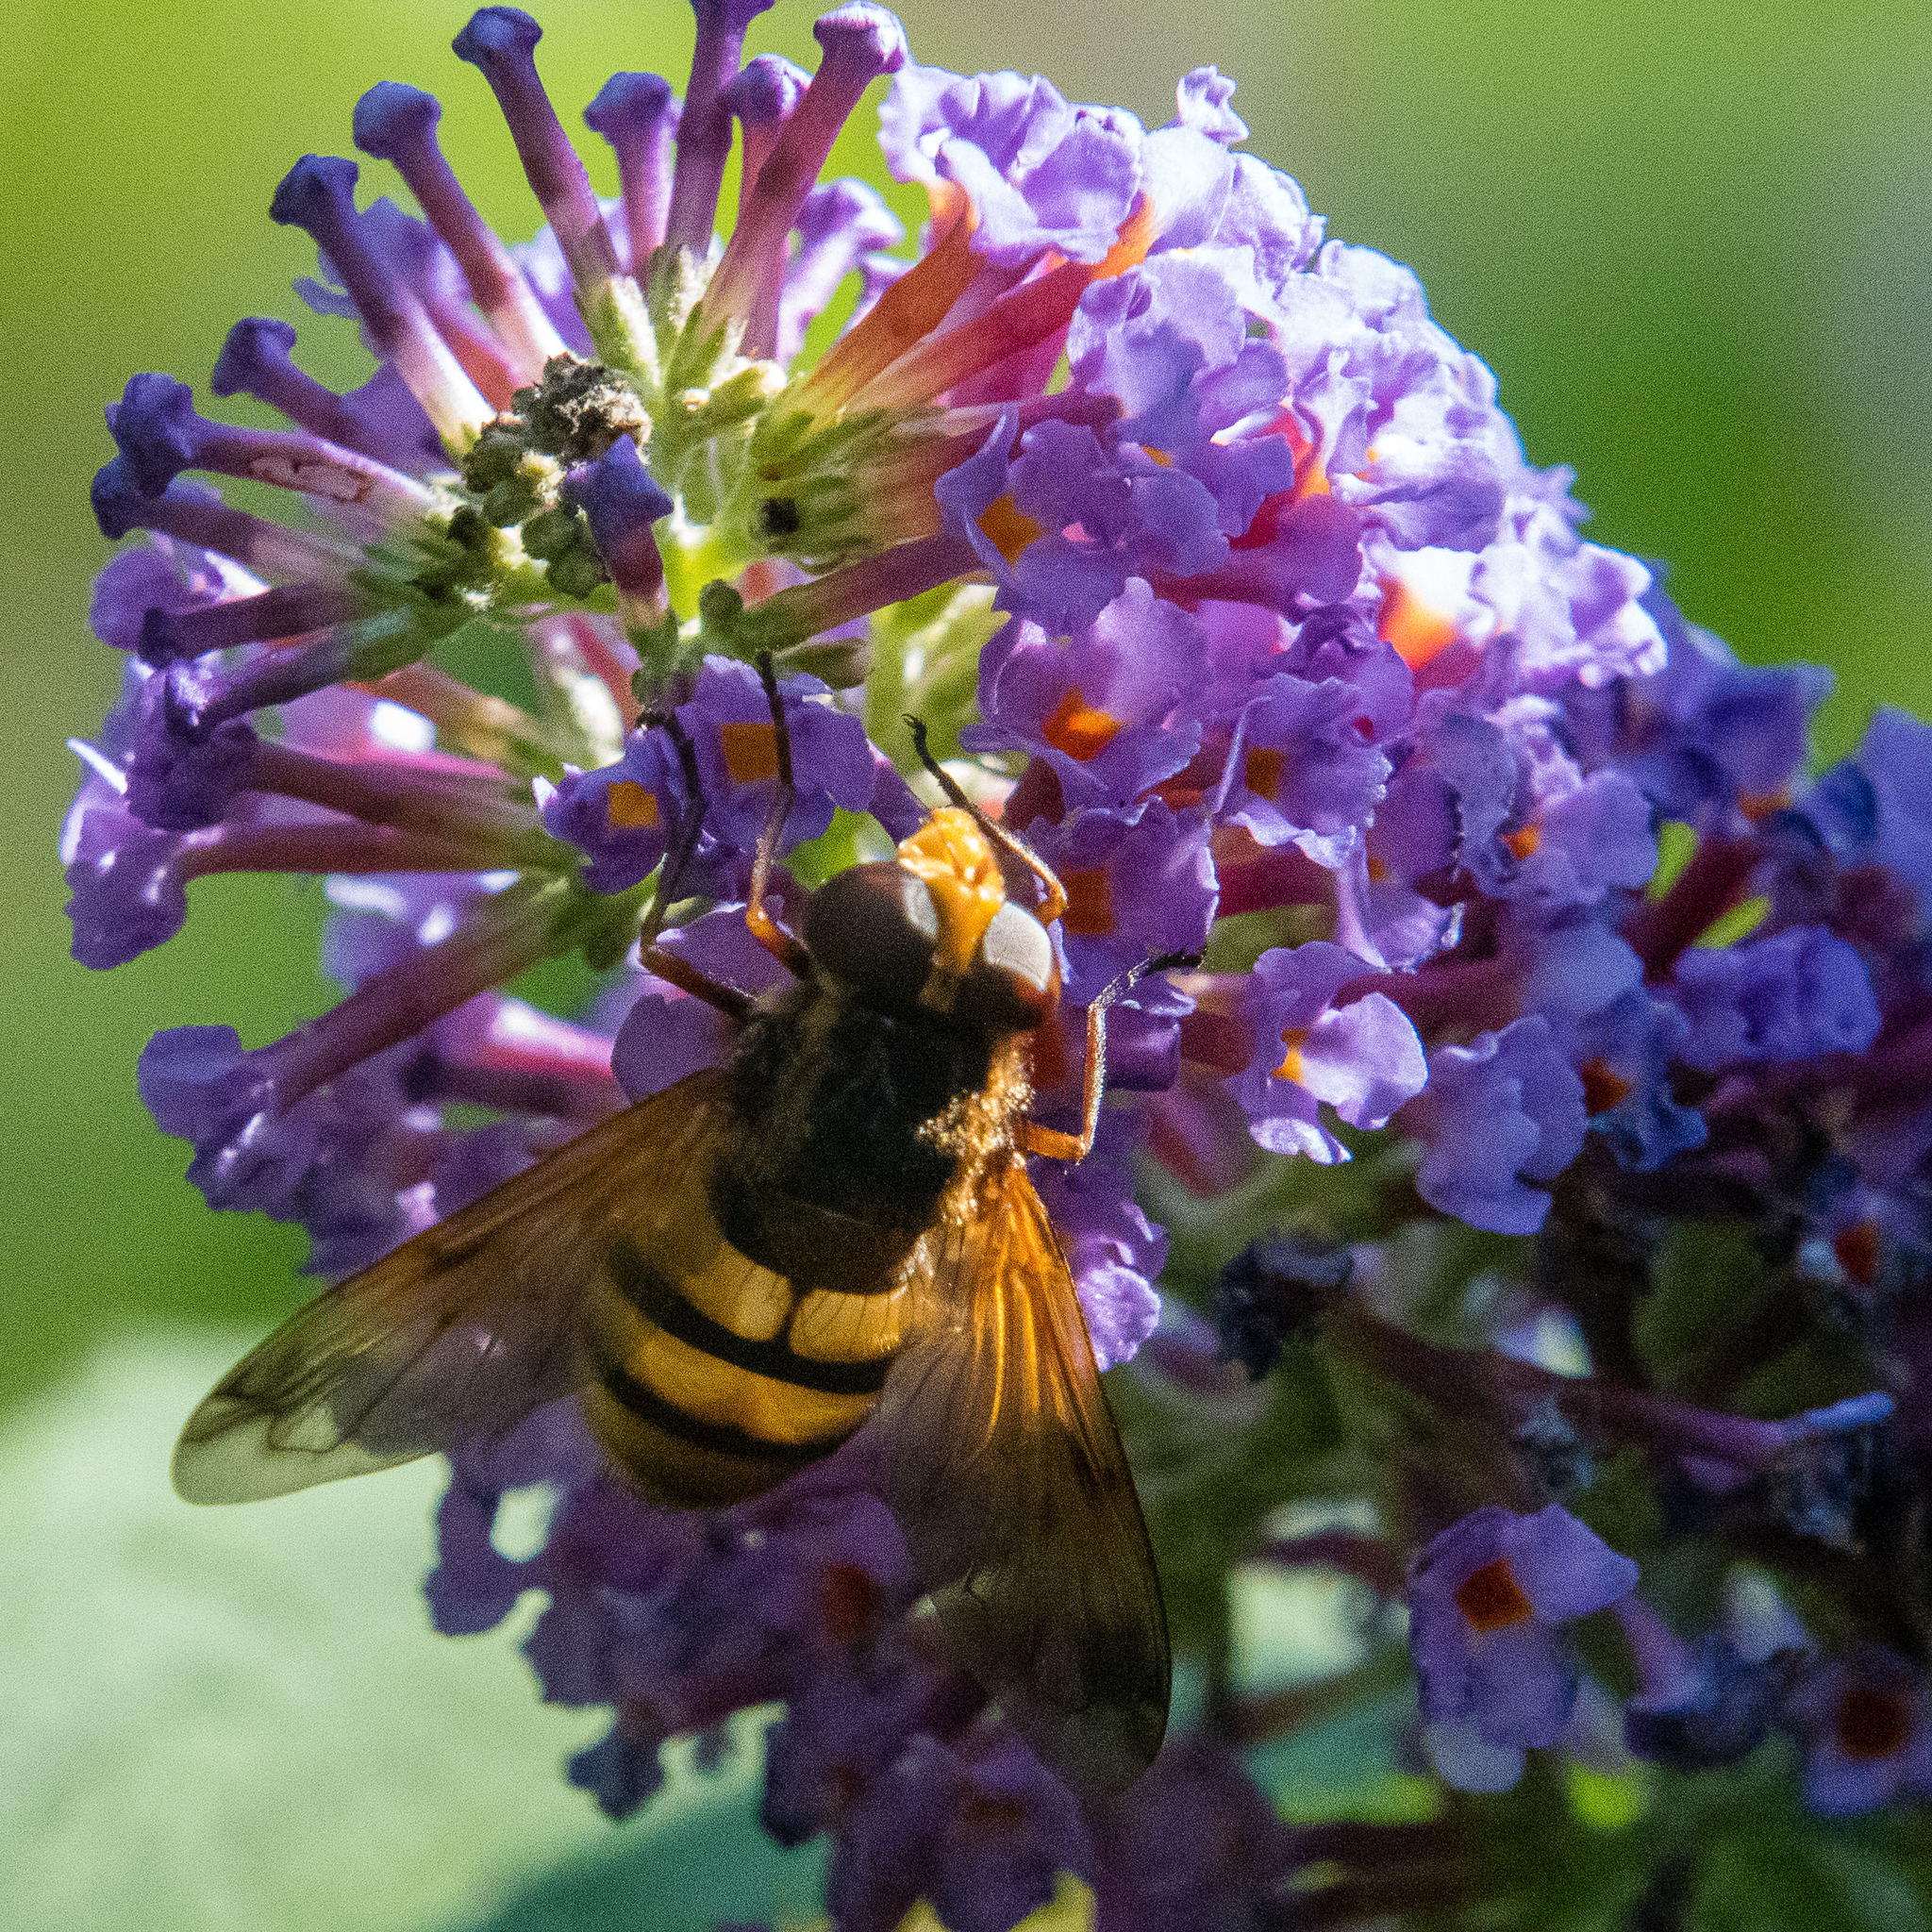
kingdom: Animalia
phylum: Arthropoda
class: Insecta
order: Diptera
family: Syrphidae
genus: Volucella
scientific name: Volucella inanis
